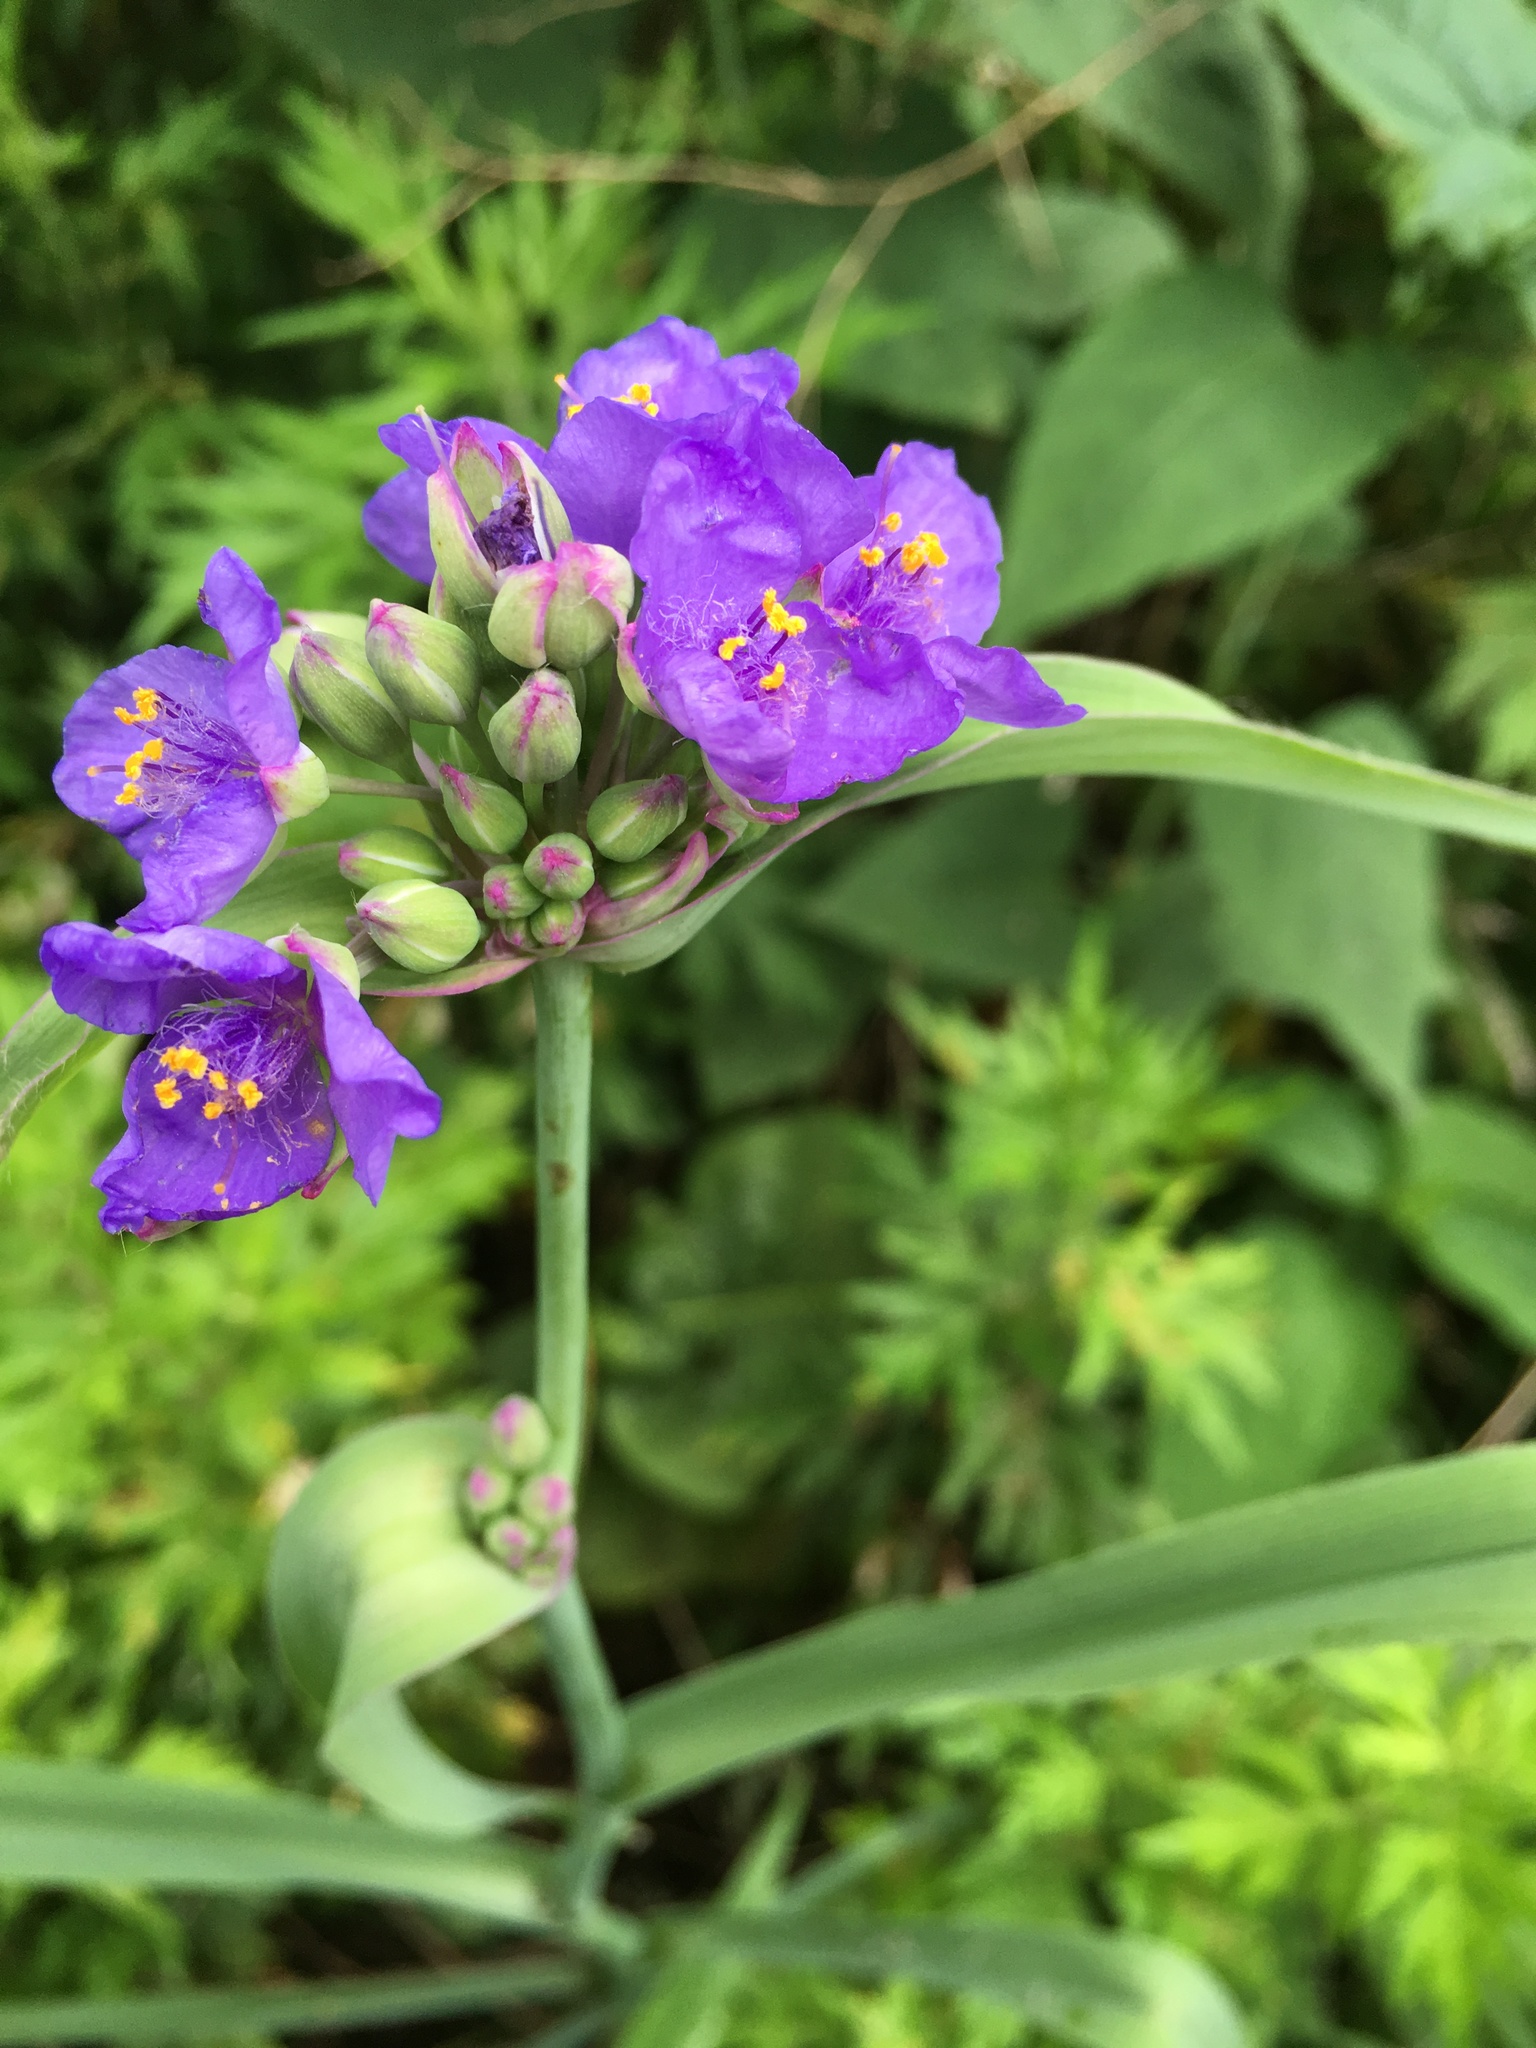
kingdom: Plantae
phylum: Tracheophyta
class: Liliopsida
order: Commelinales
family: Commelinaceae
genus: Tradescantia
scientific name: Tradescantia ohiensis
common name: Ohio spiderwort
